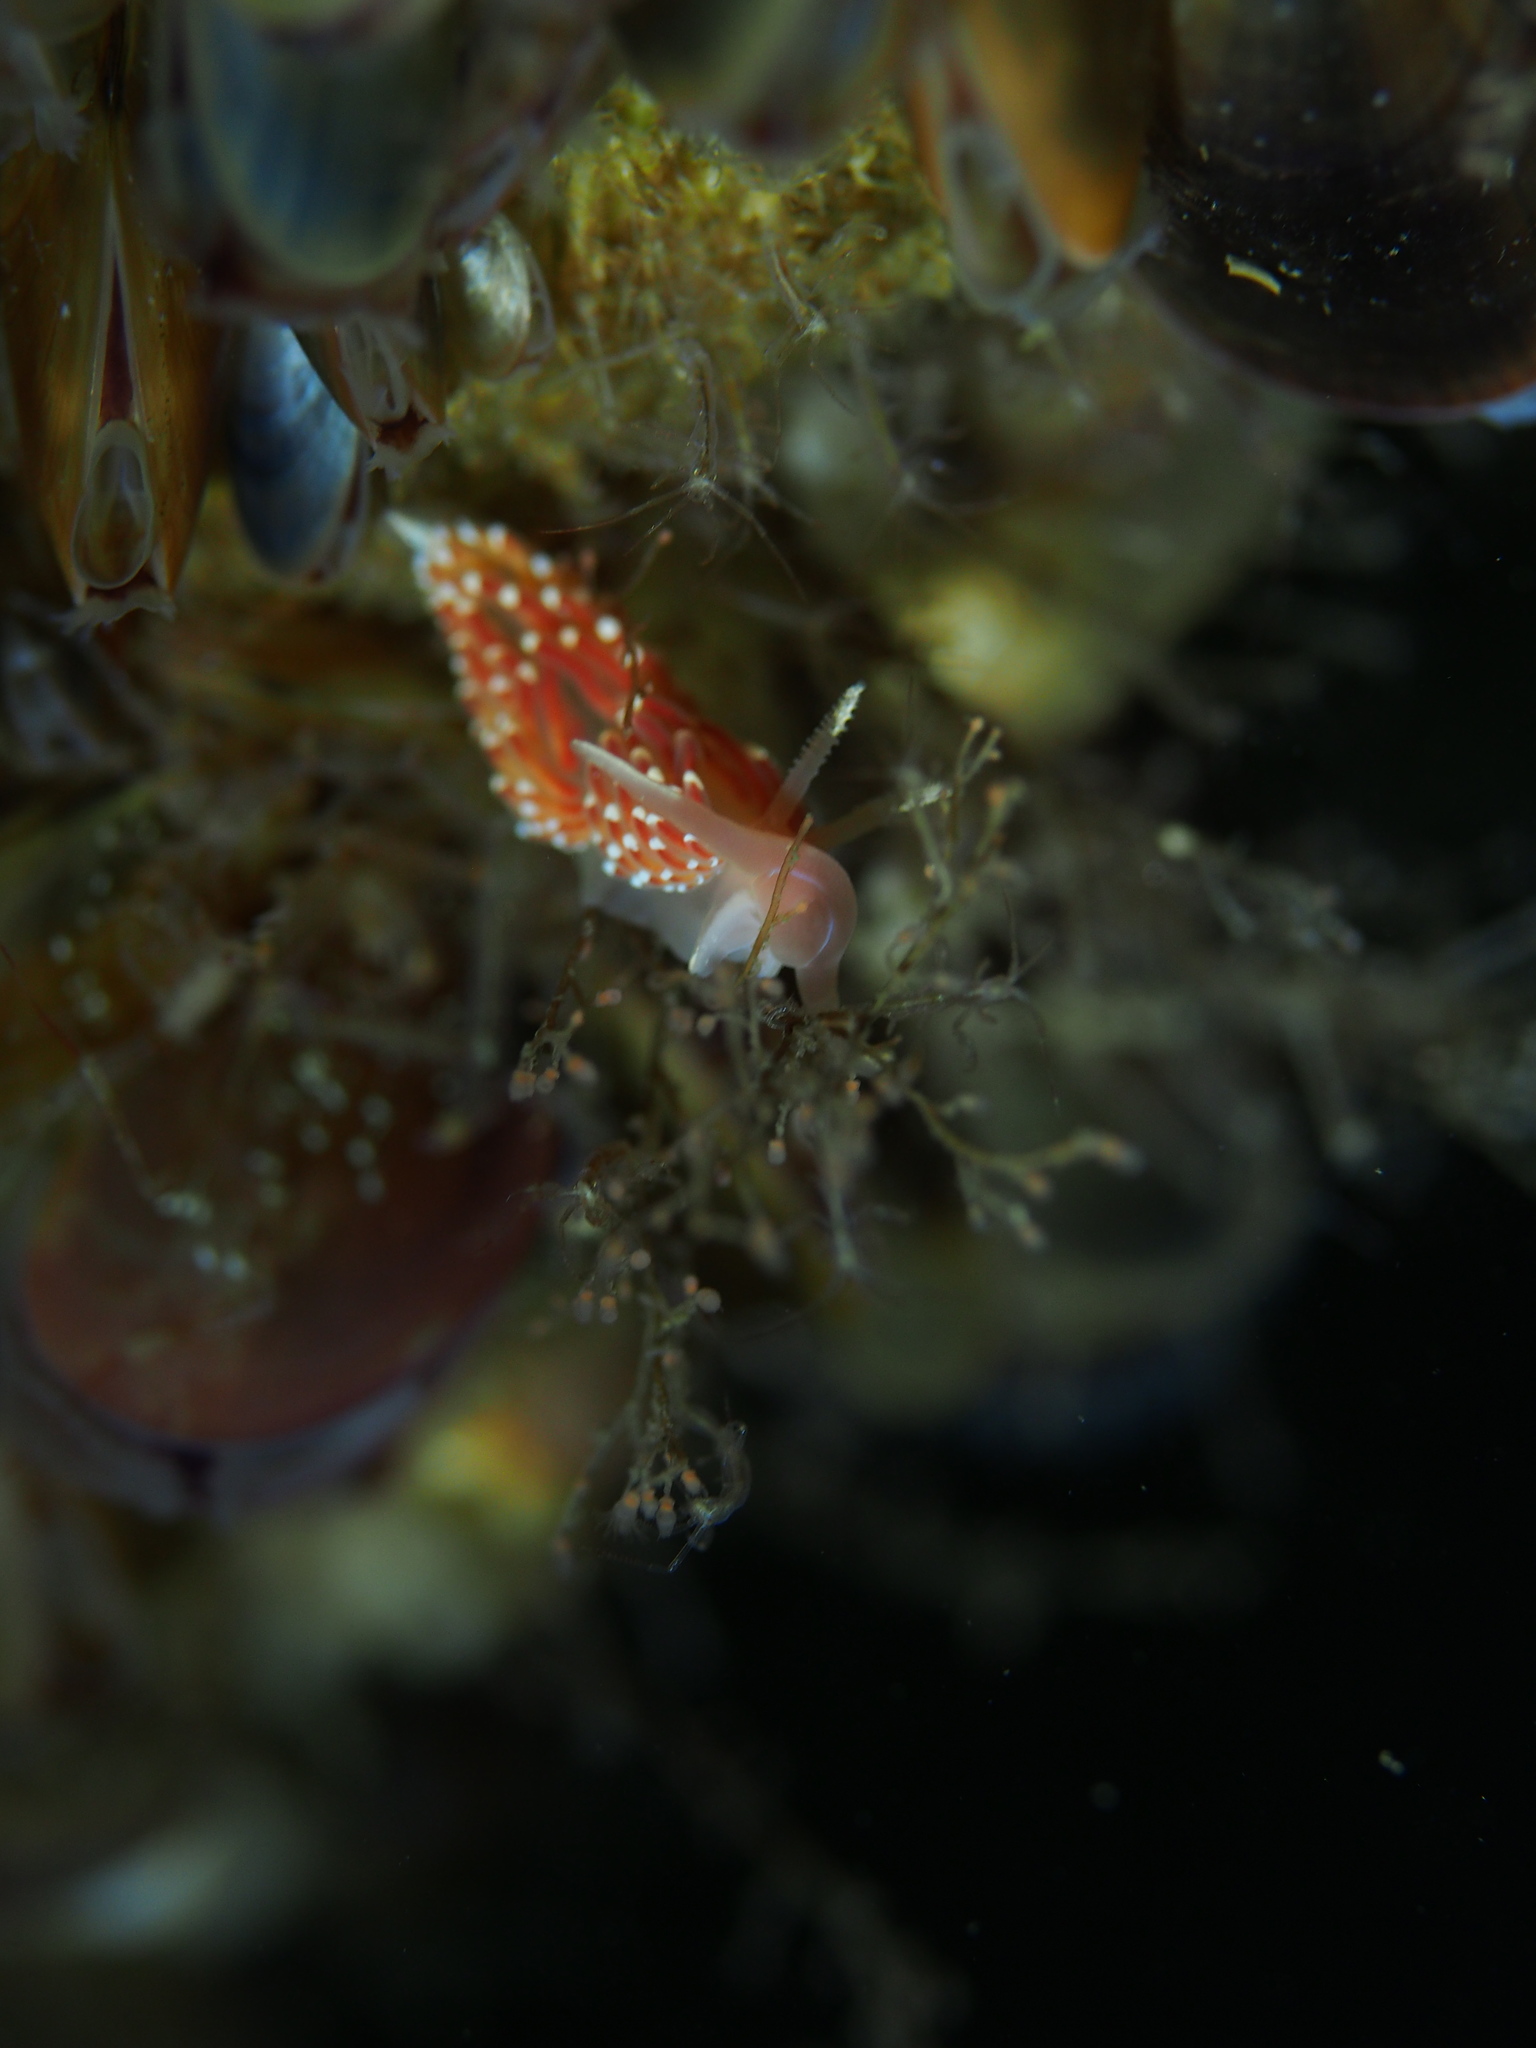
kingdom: Animalia
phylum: Mollusca
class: Gastropoda
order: Nudibranchia
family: Facelinidae
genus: Facelina
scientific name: Facelina bostoniensis
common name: Boston facelina
